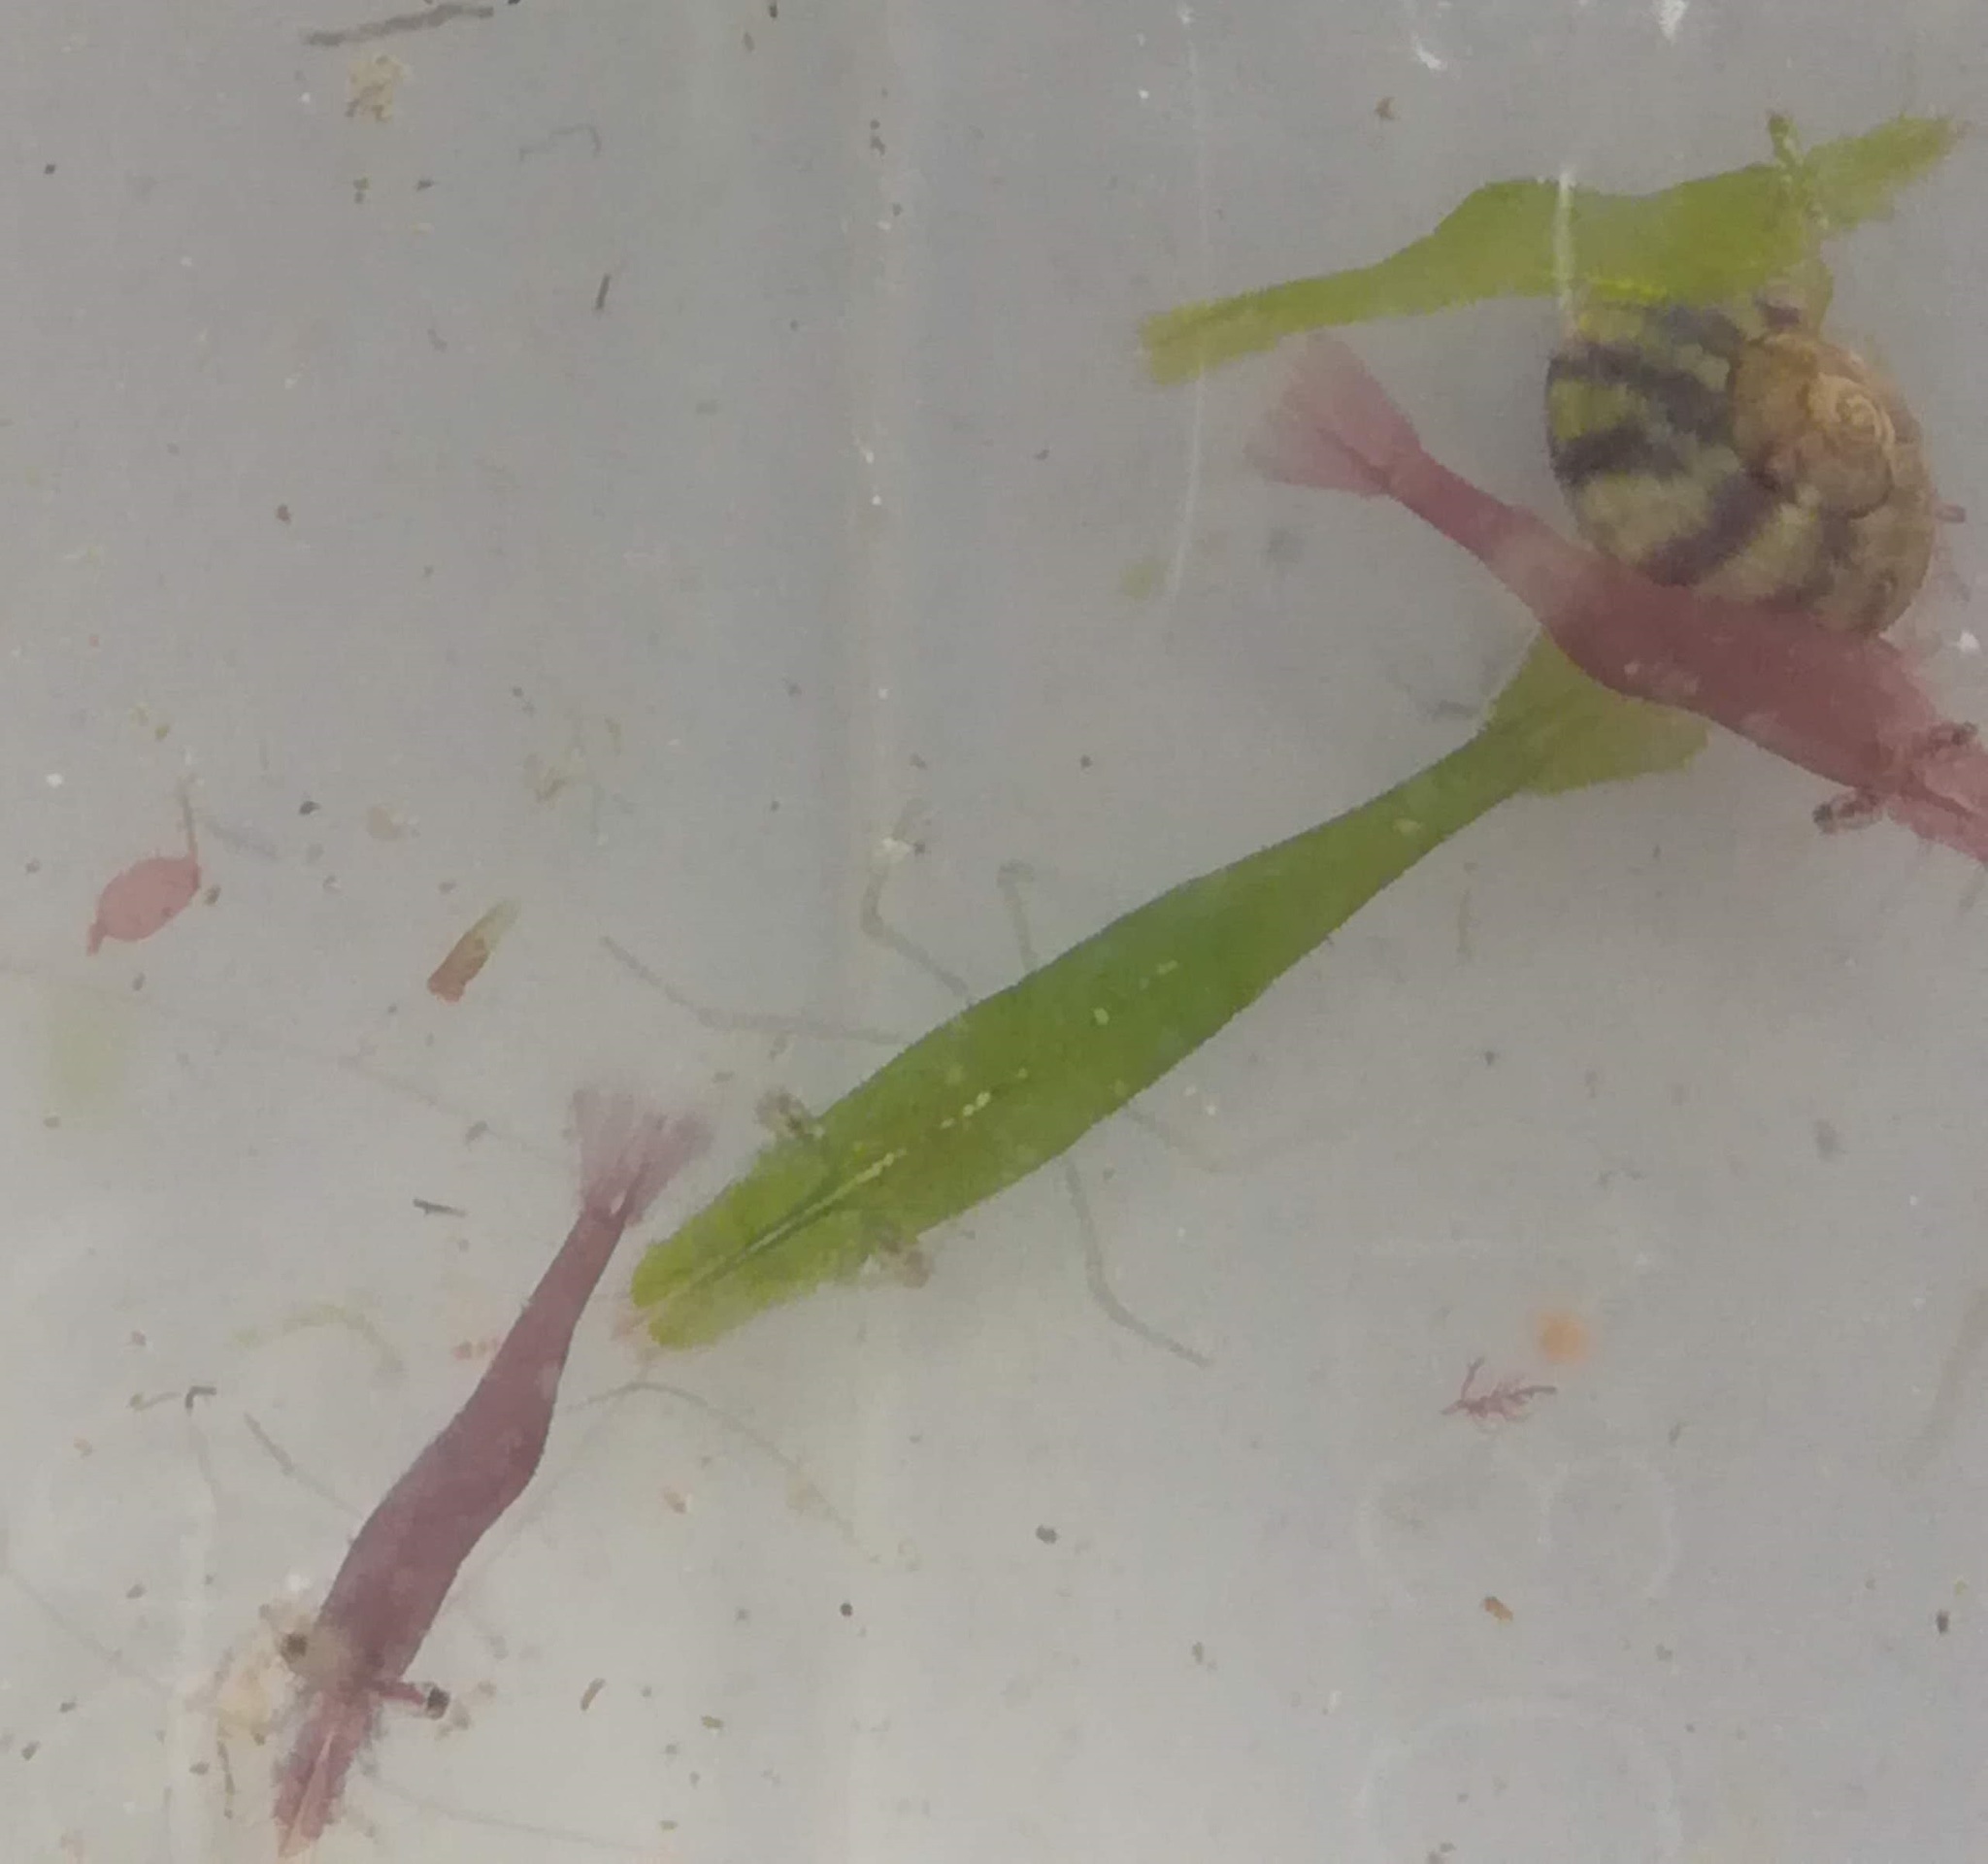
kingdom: Animalia
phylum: Arthropoda
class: Malacostraca
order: Decapoda
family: Hippolytidae
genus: Hippolyte
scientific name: Hippolyte varians
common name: Chamaeleon prawn
